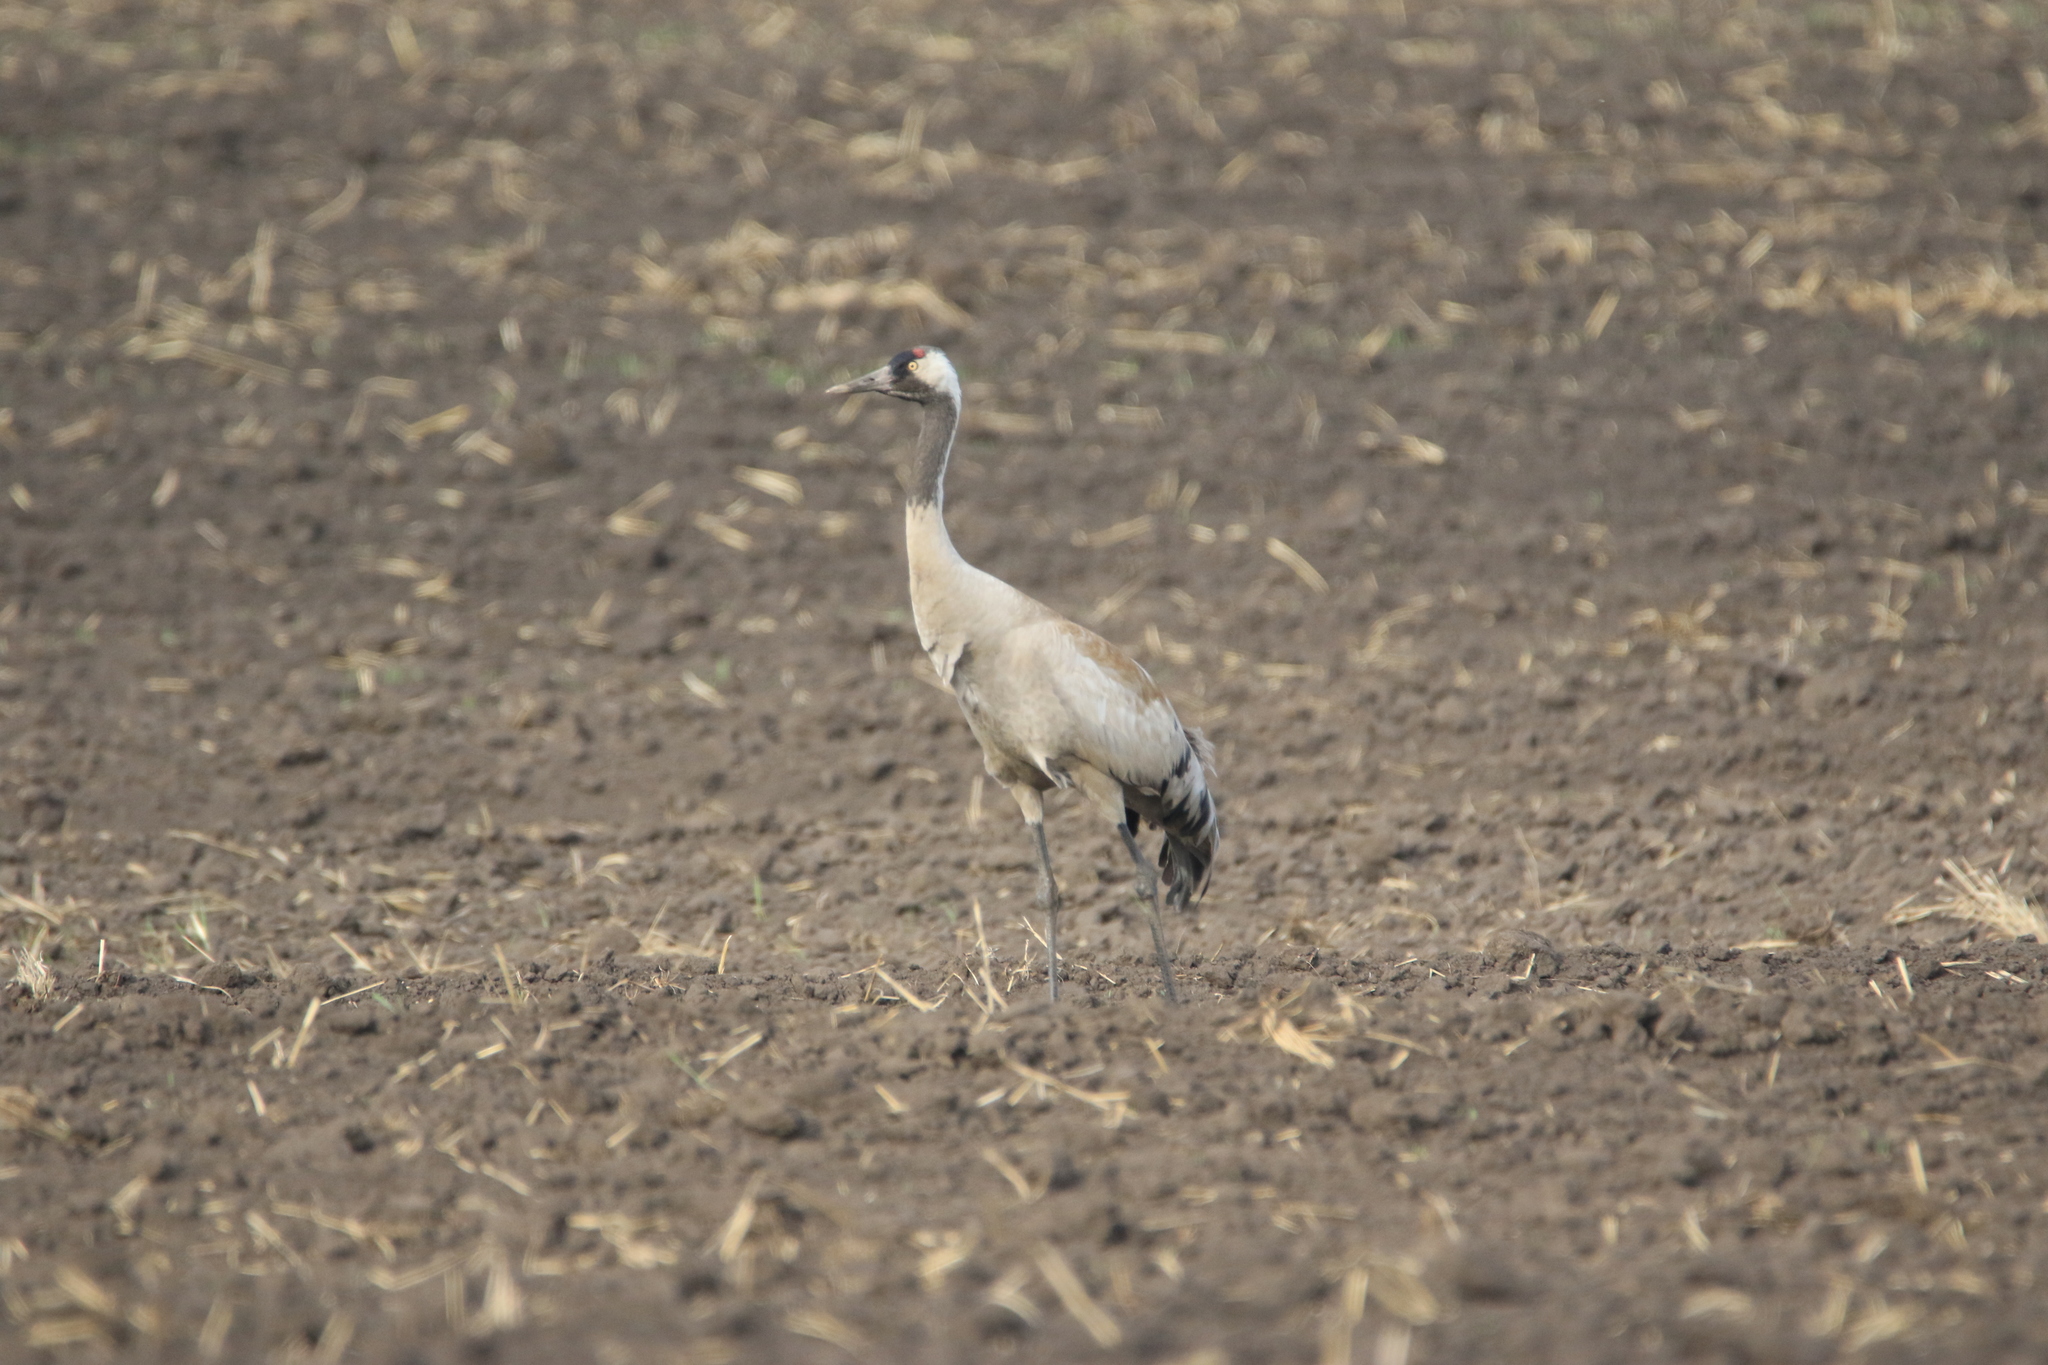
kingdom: Animalia
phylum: Chordata
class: Aves
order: Gruiformes
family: Gruidae
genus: Grus
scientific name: Grus grus
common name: Common crane
